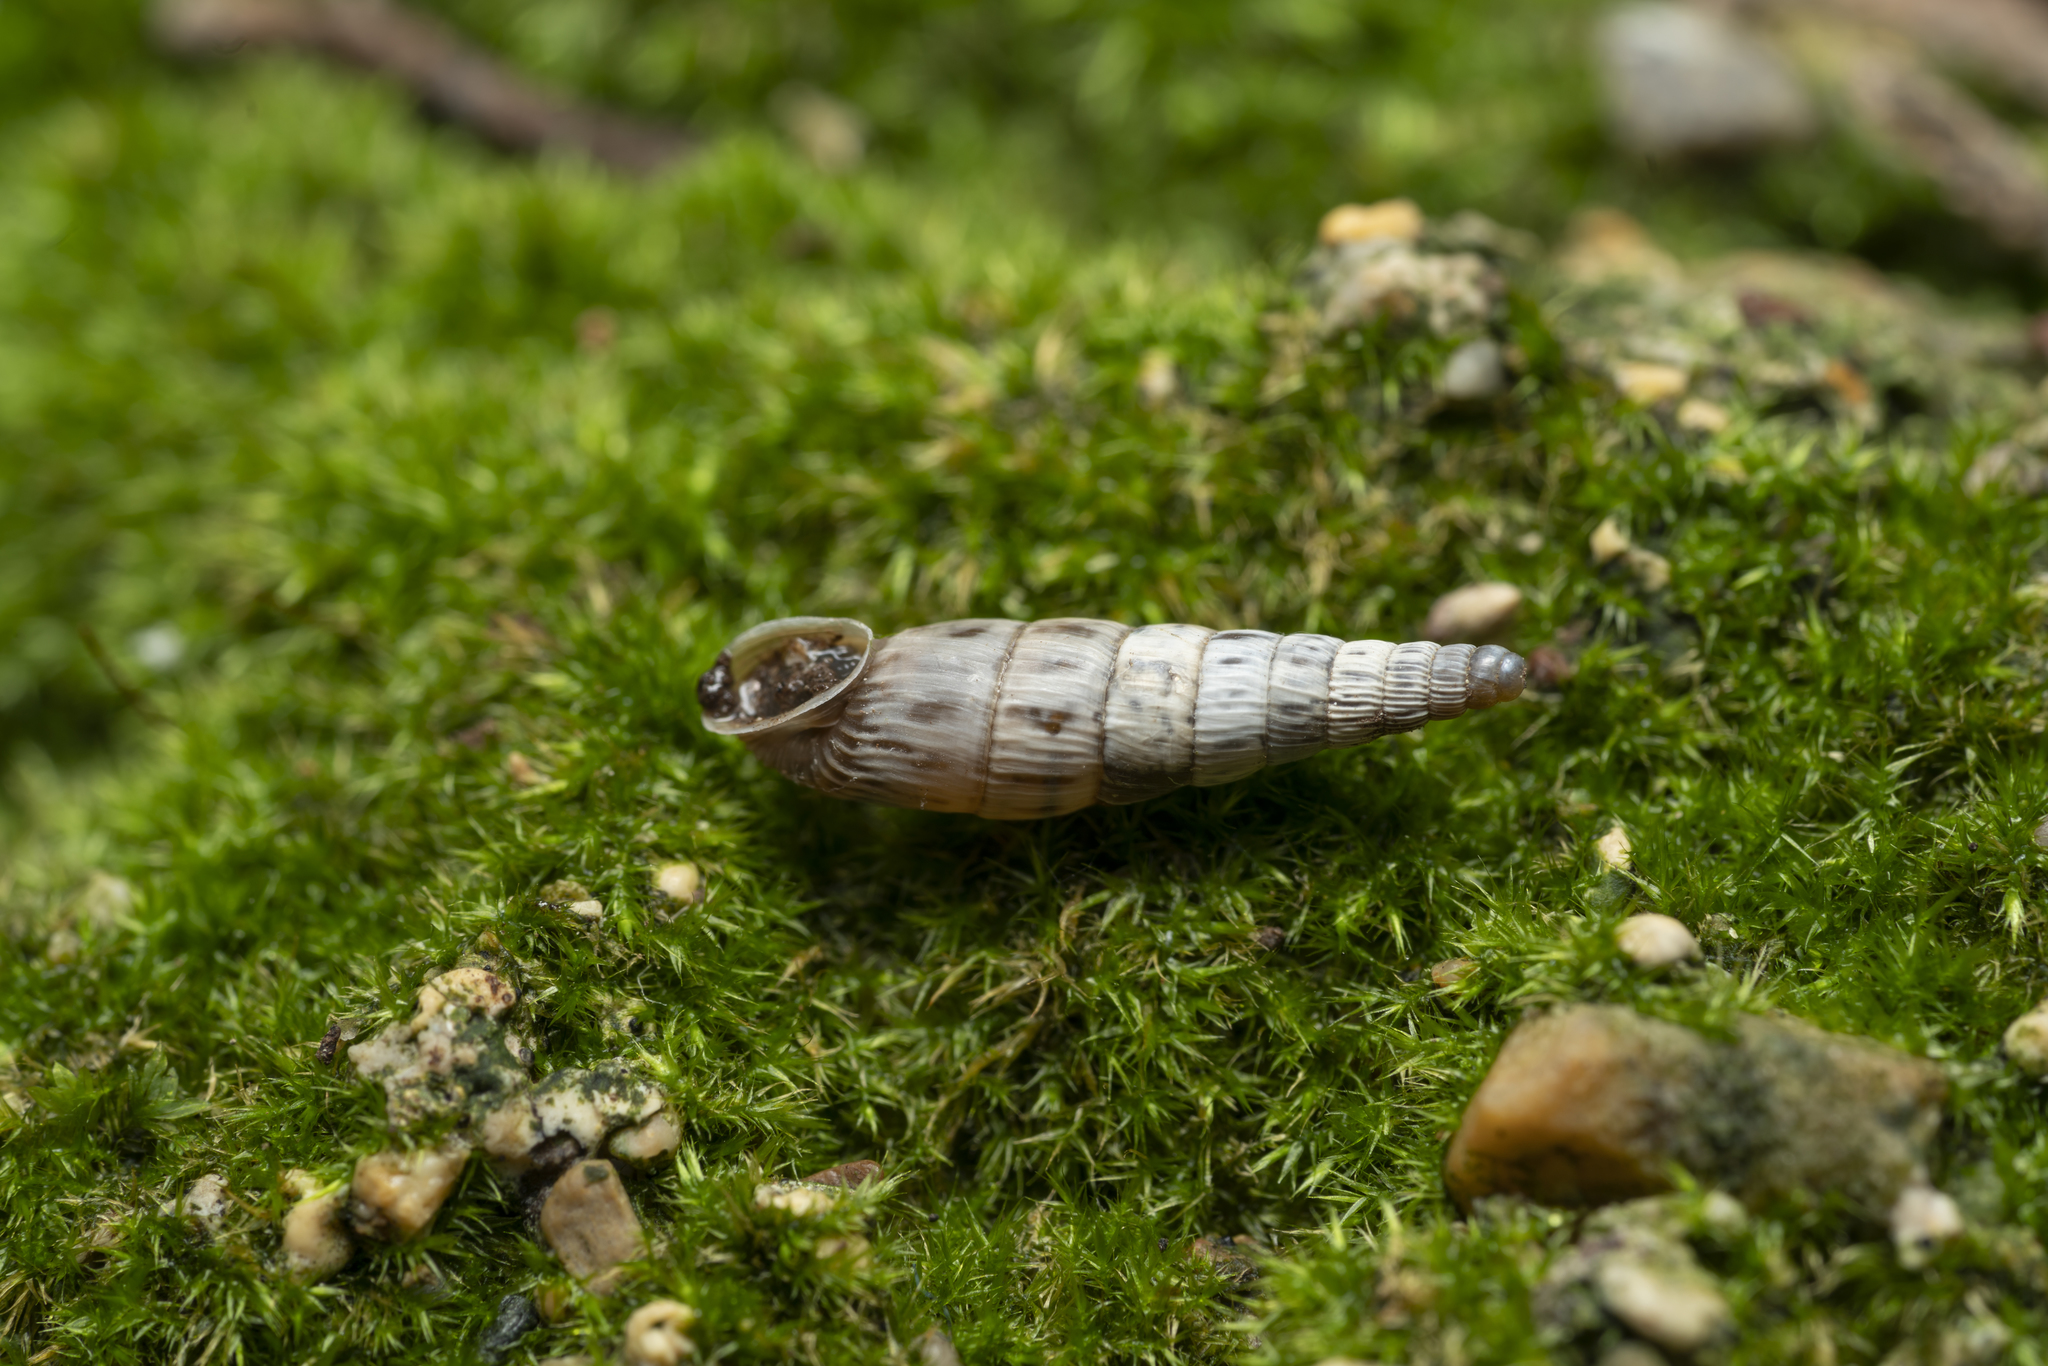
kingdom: Animalia
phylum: Mollusca
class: Gastropoda
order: Stylommatophora
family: Clausiliidae
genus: Albinaria
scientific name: Albinaria olivieri
